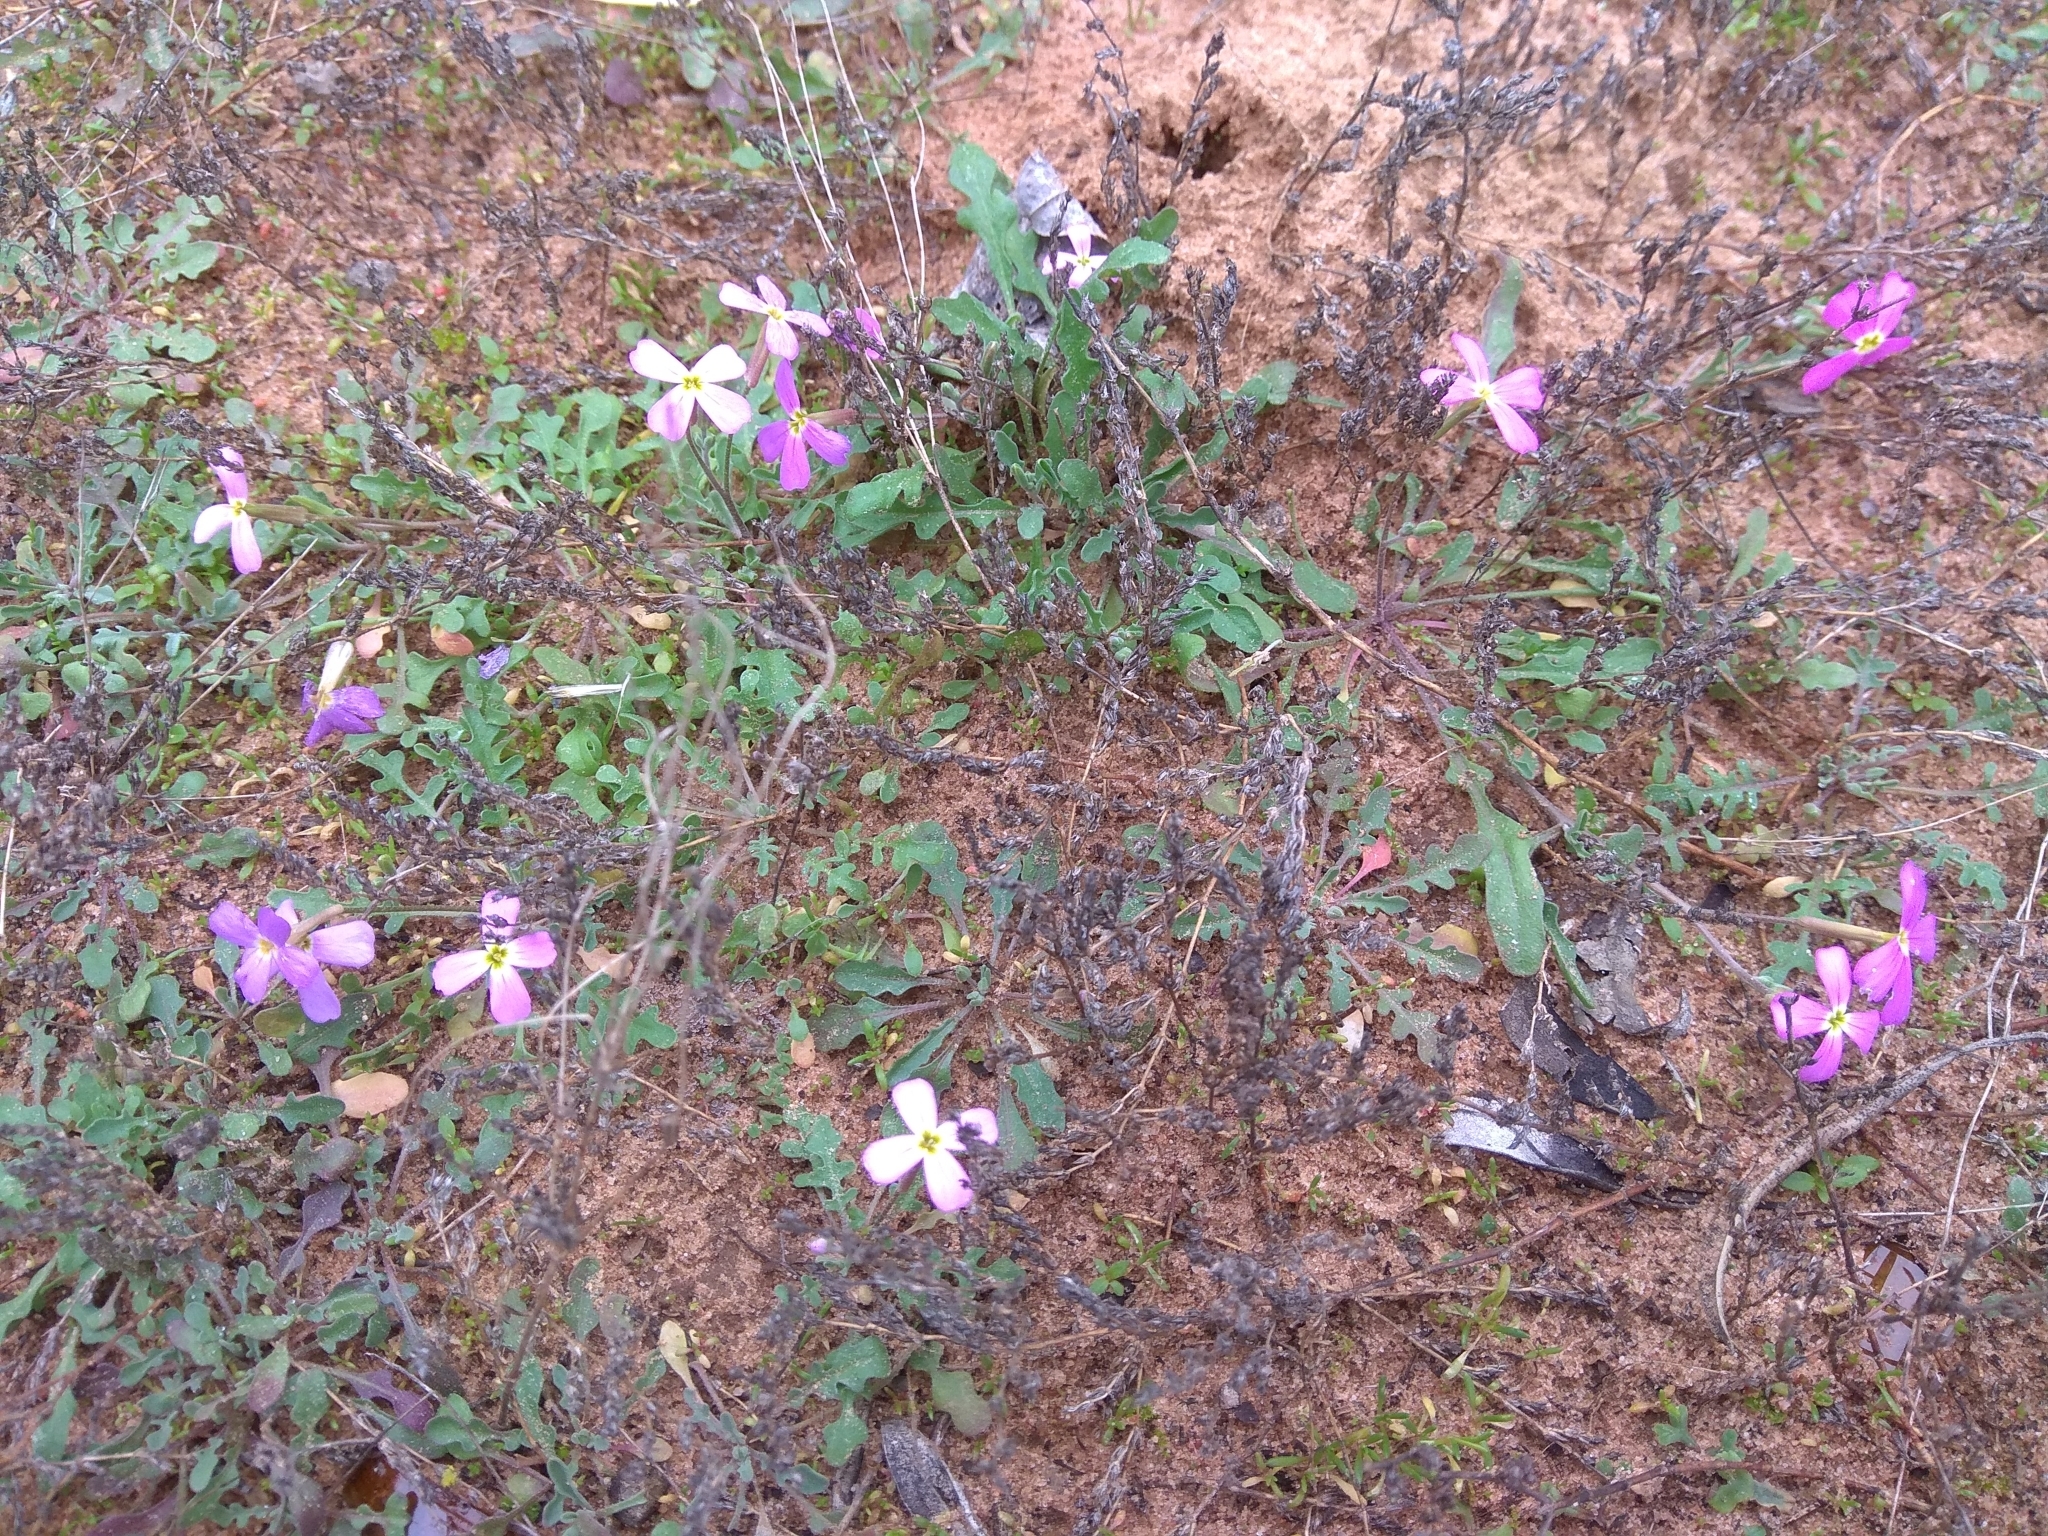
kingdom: Plantae
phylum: Tracheophyta
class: Magnoliopsida
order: Brassicales
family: Brassicaceae
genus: Marcuskochia
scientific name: Marcuskochia triloba
